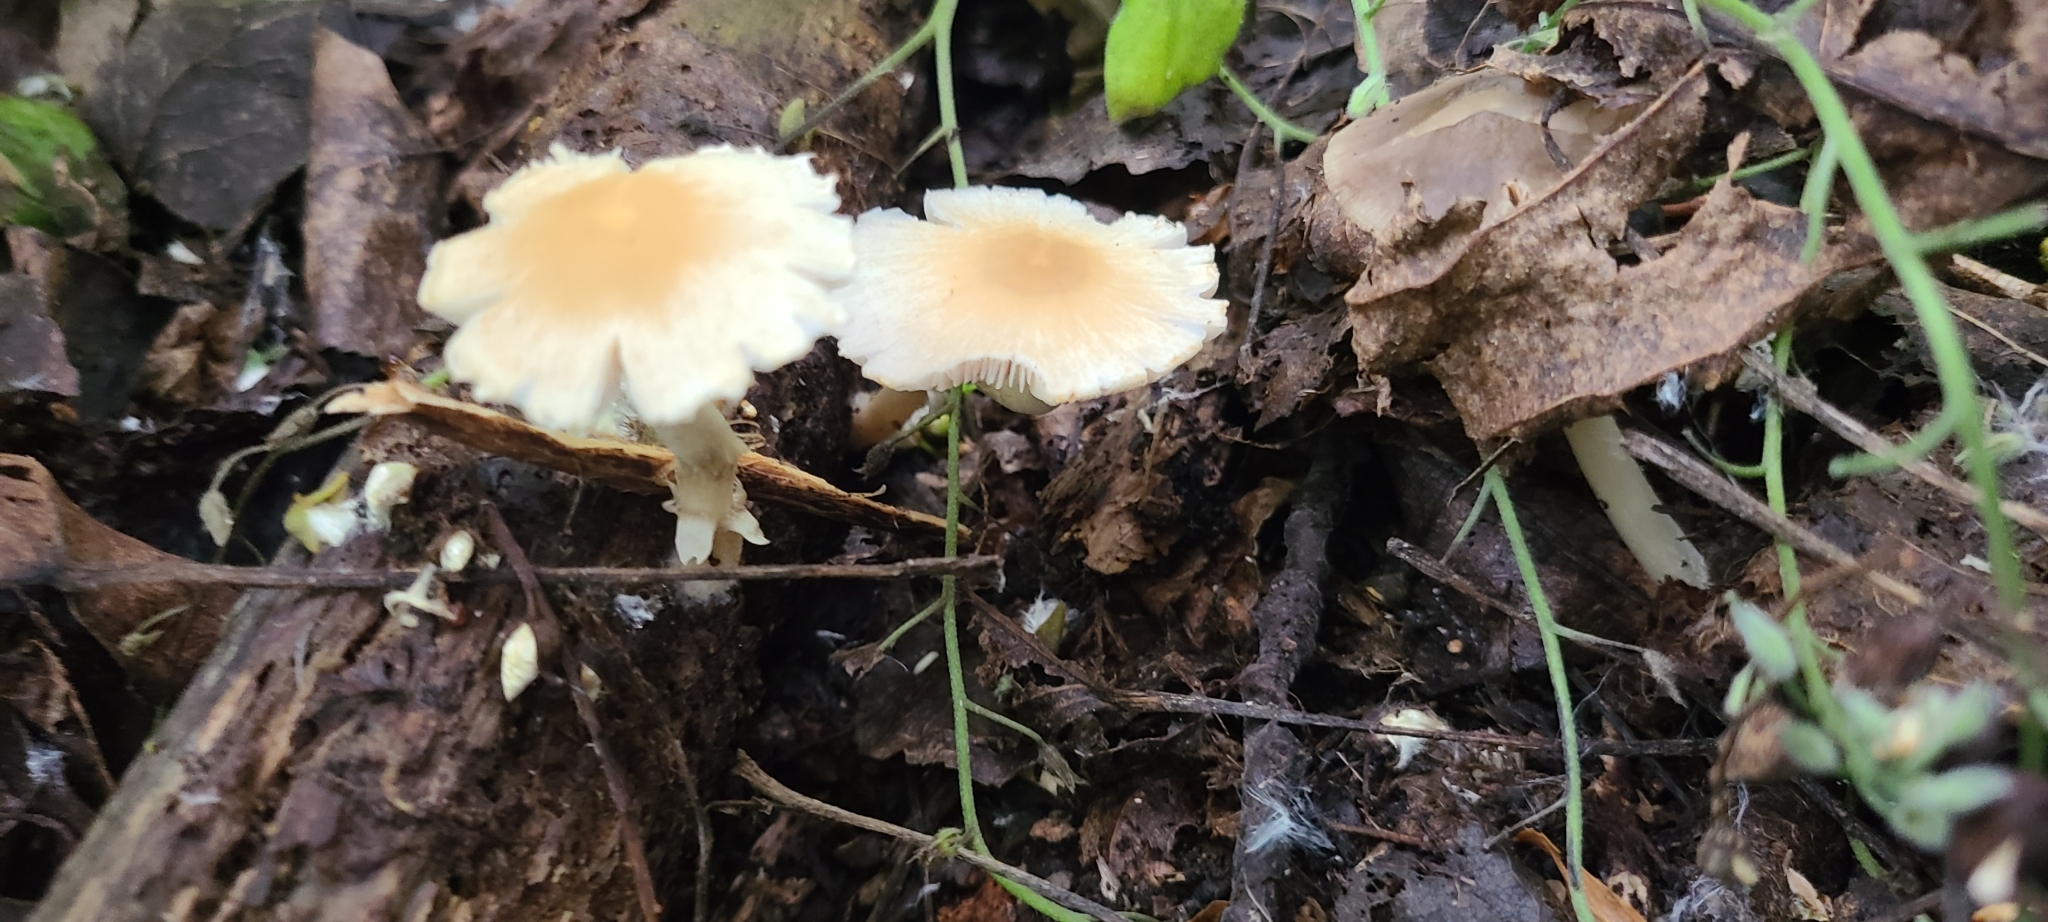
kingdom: Fungi
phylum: Basidiomycota
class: Agaricomycetes
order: Agaricales
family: Psathyrellaceae
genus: Candolleomyces
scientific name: Candolleomyces candolleanus
